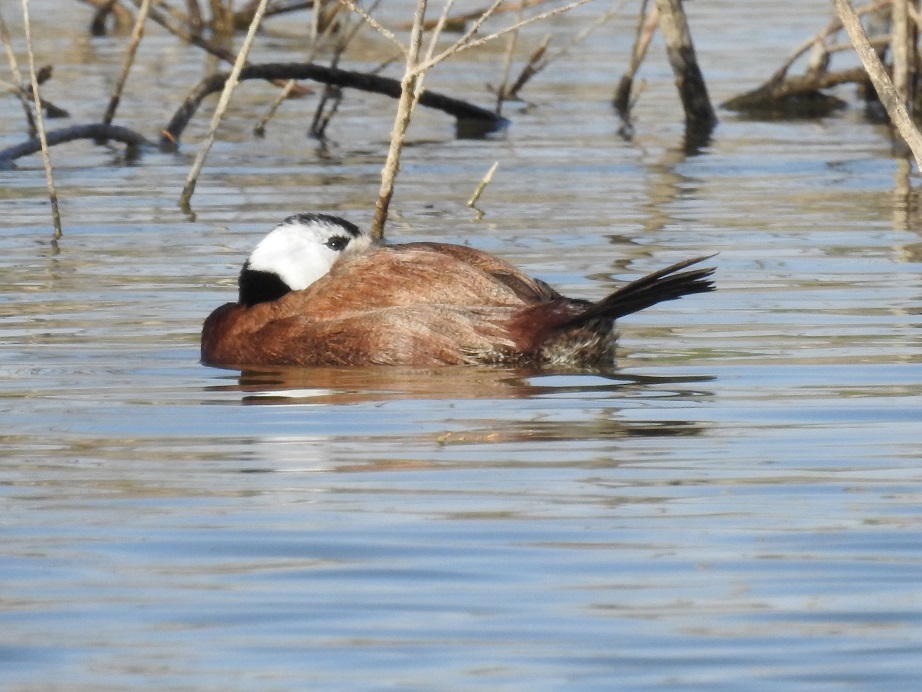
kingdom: Animalia
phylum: Chordata
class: Aves
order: Anseriformes
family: Anatidae
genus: Oxyura
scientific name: Oxyura leucocephala
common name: White-headed duck
